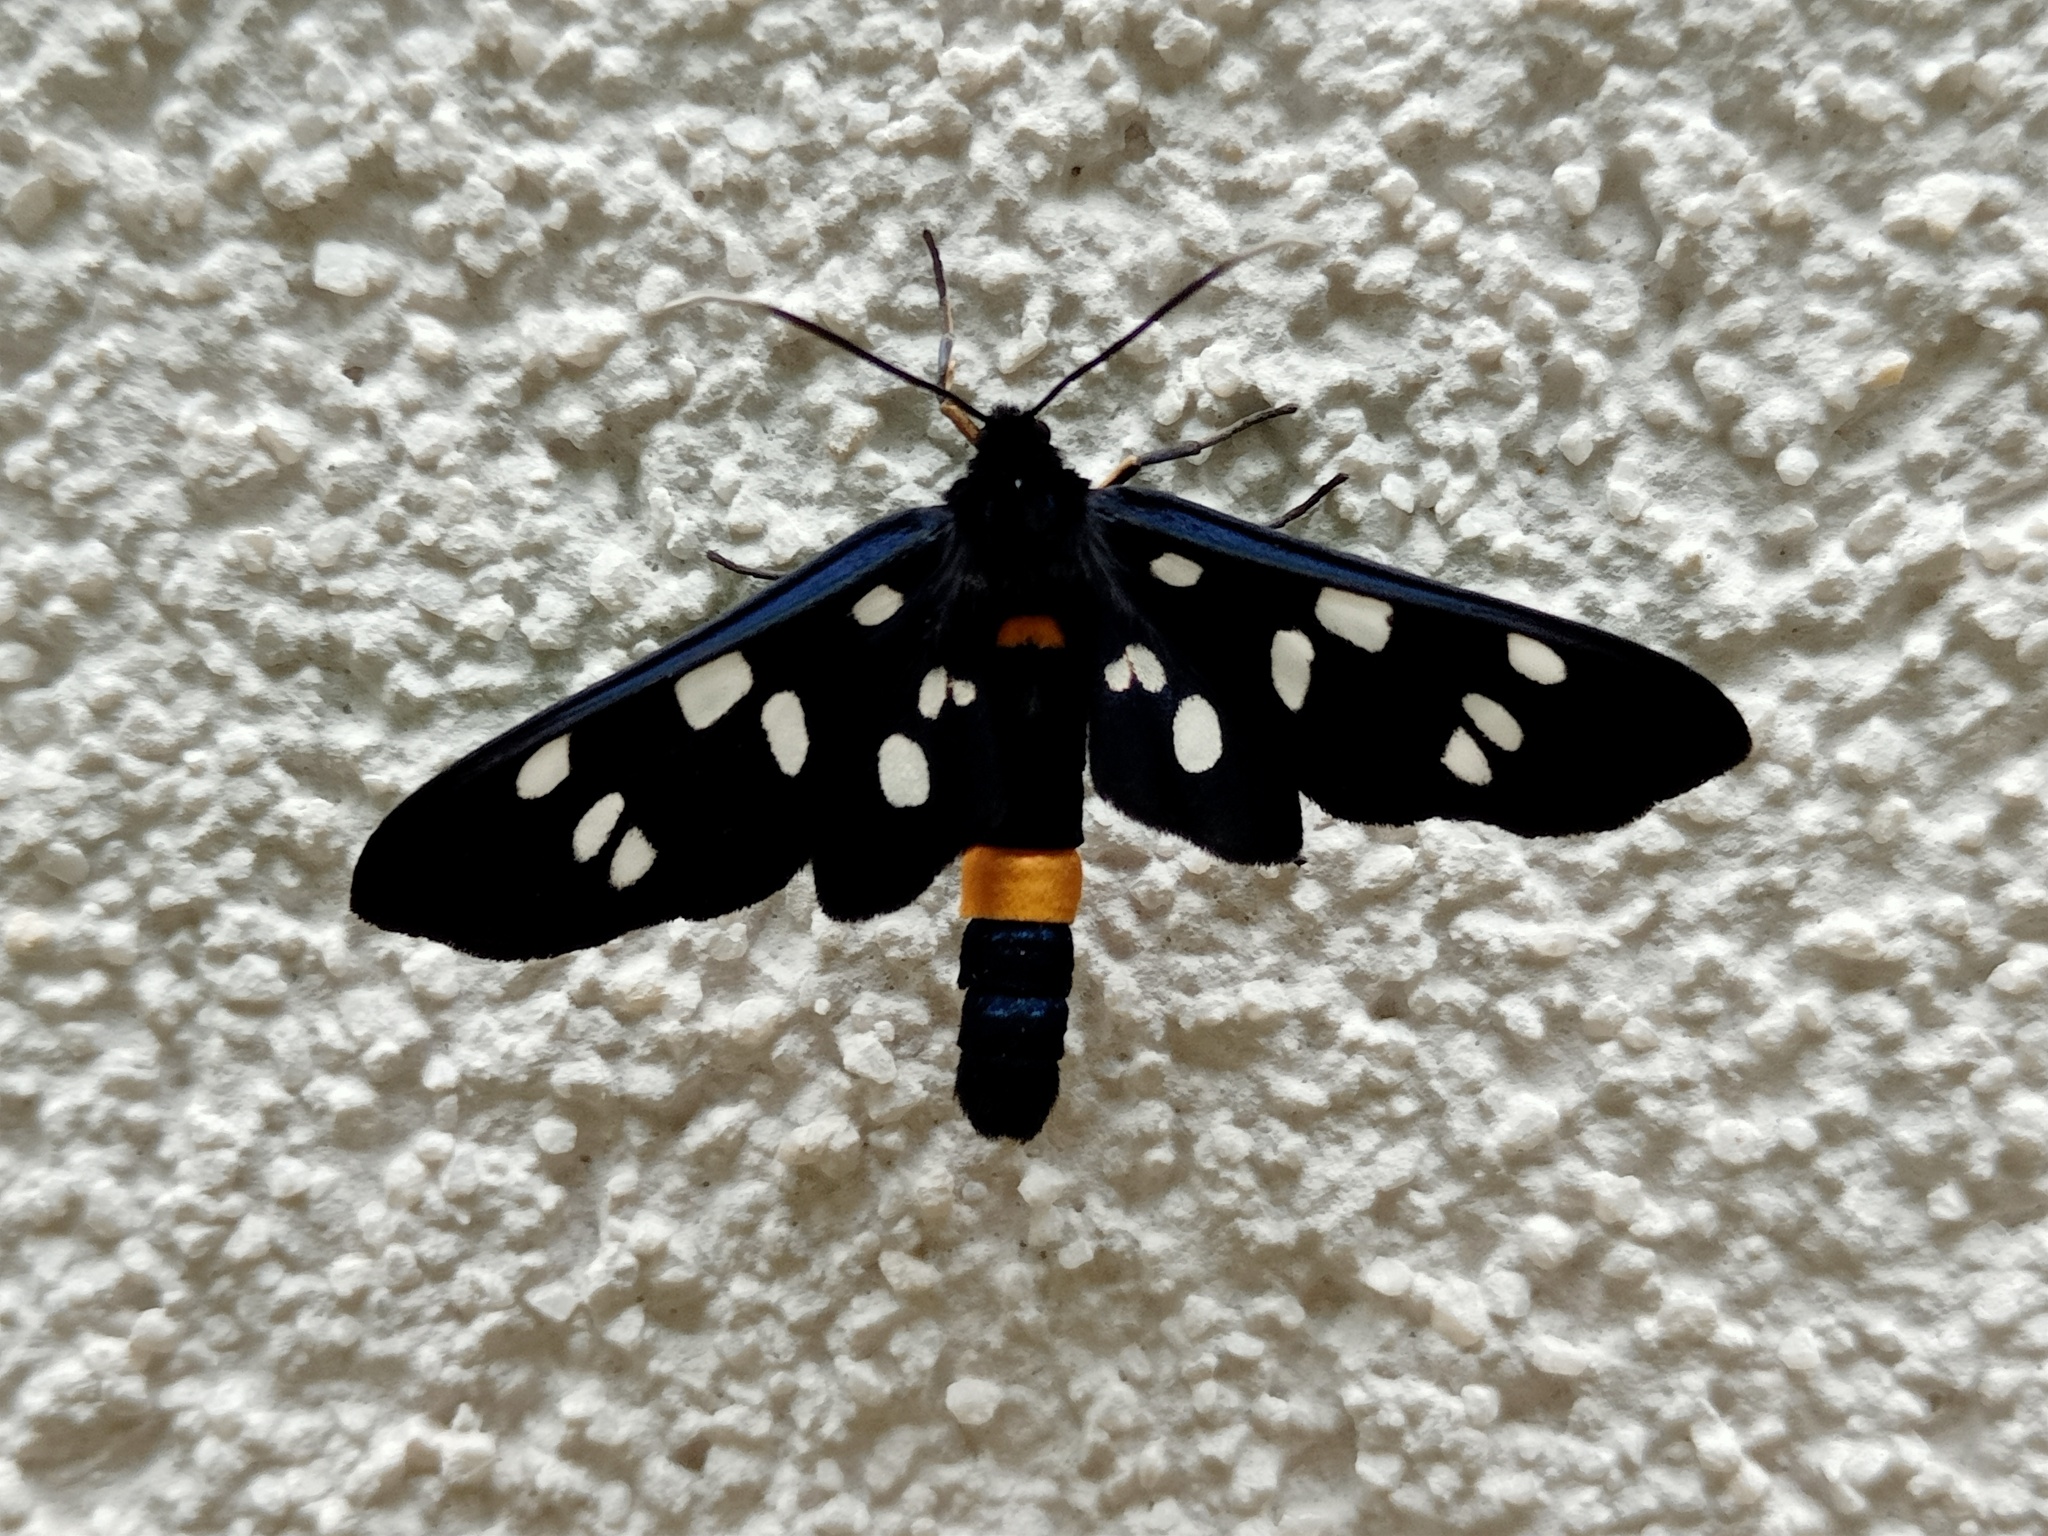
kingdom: Animalia
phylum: Arthropoda
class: Insecta
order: Lepidoptera
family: Erebidae
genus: Amata
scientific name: Amata phegea
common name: Nine-spotted
